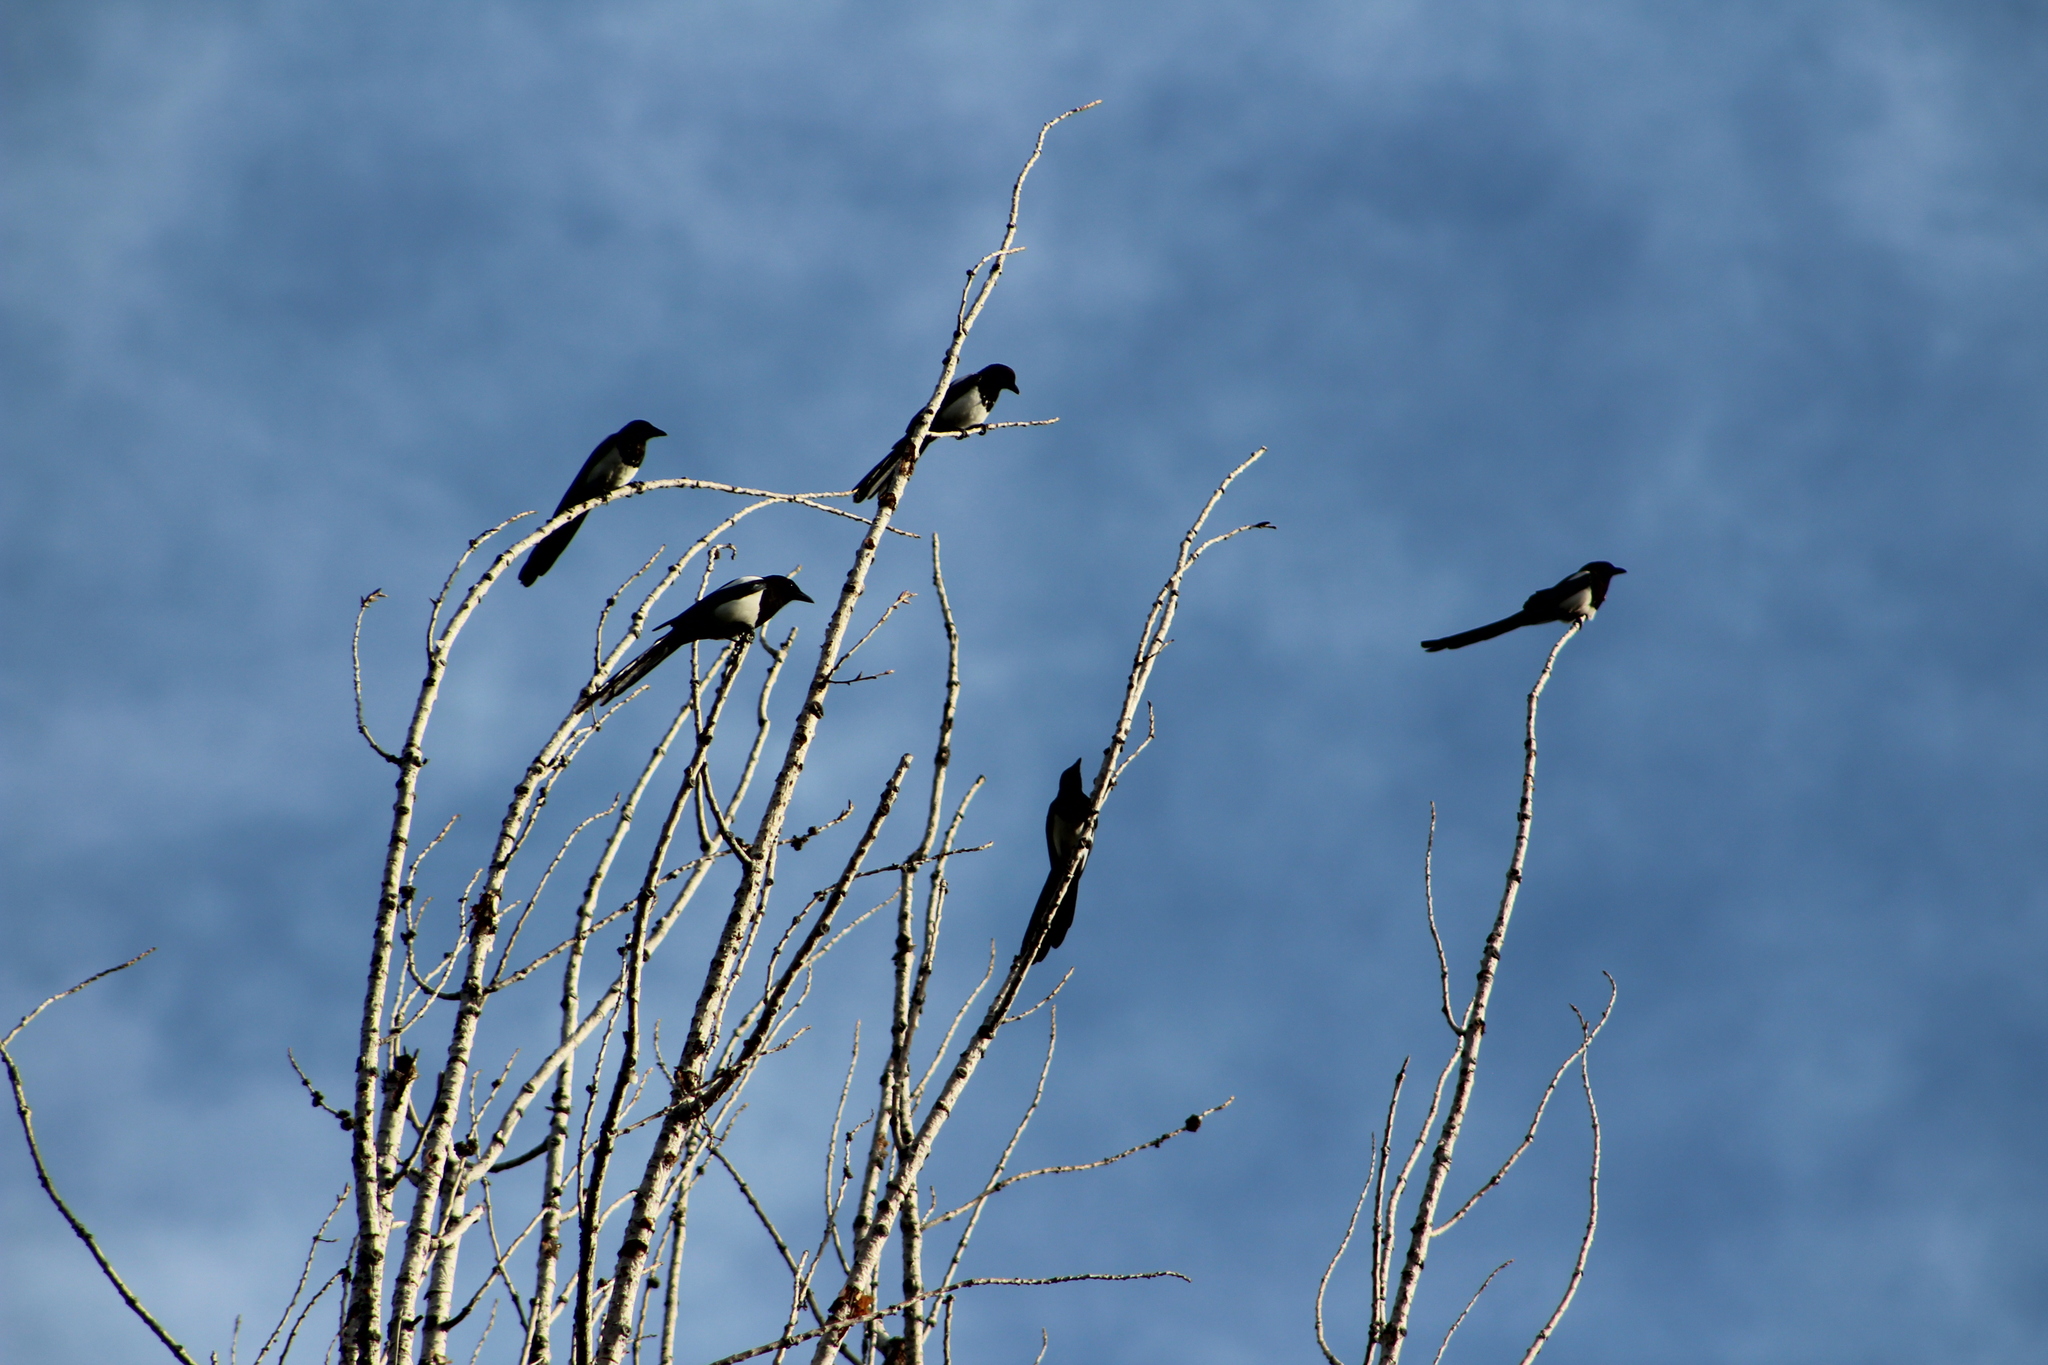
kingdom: Animalia
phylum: Chordata
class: Aves
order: Passeriformes
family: Corvidae
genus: Pica
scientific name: Pica hudsonia
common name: Black-billed magpie
